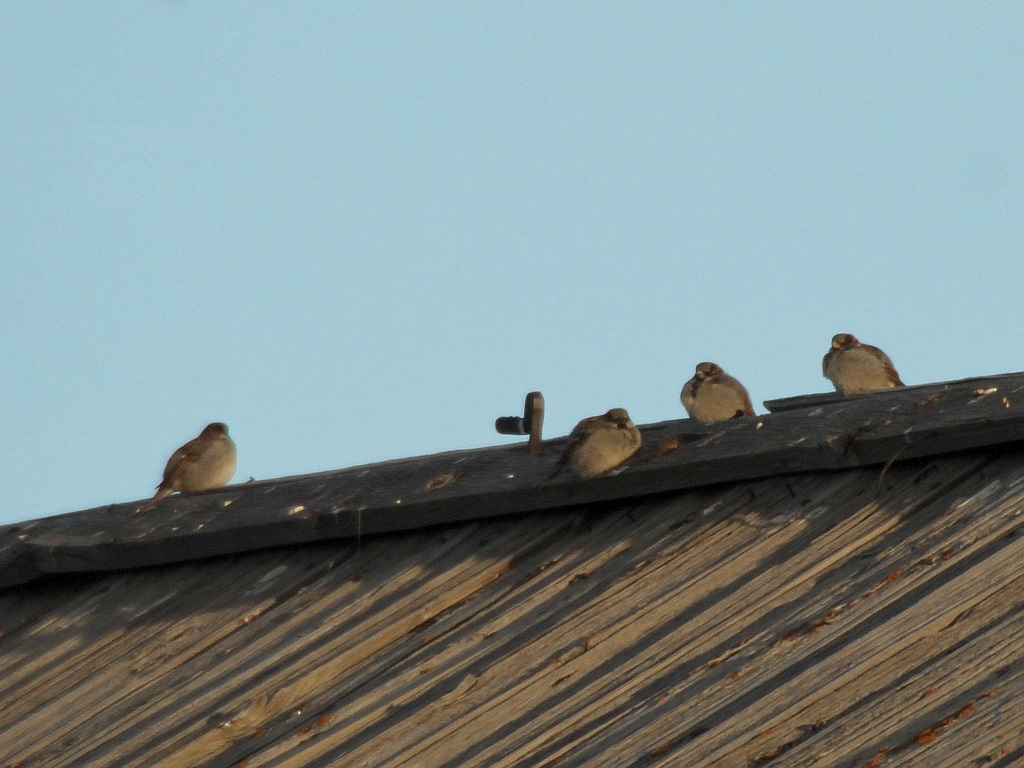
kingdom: Animalia
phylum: Chordata
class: Aves
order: Passeriformes
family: Passeridae
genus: Passer
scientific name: Passer domesticus
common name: House sparrow
